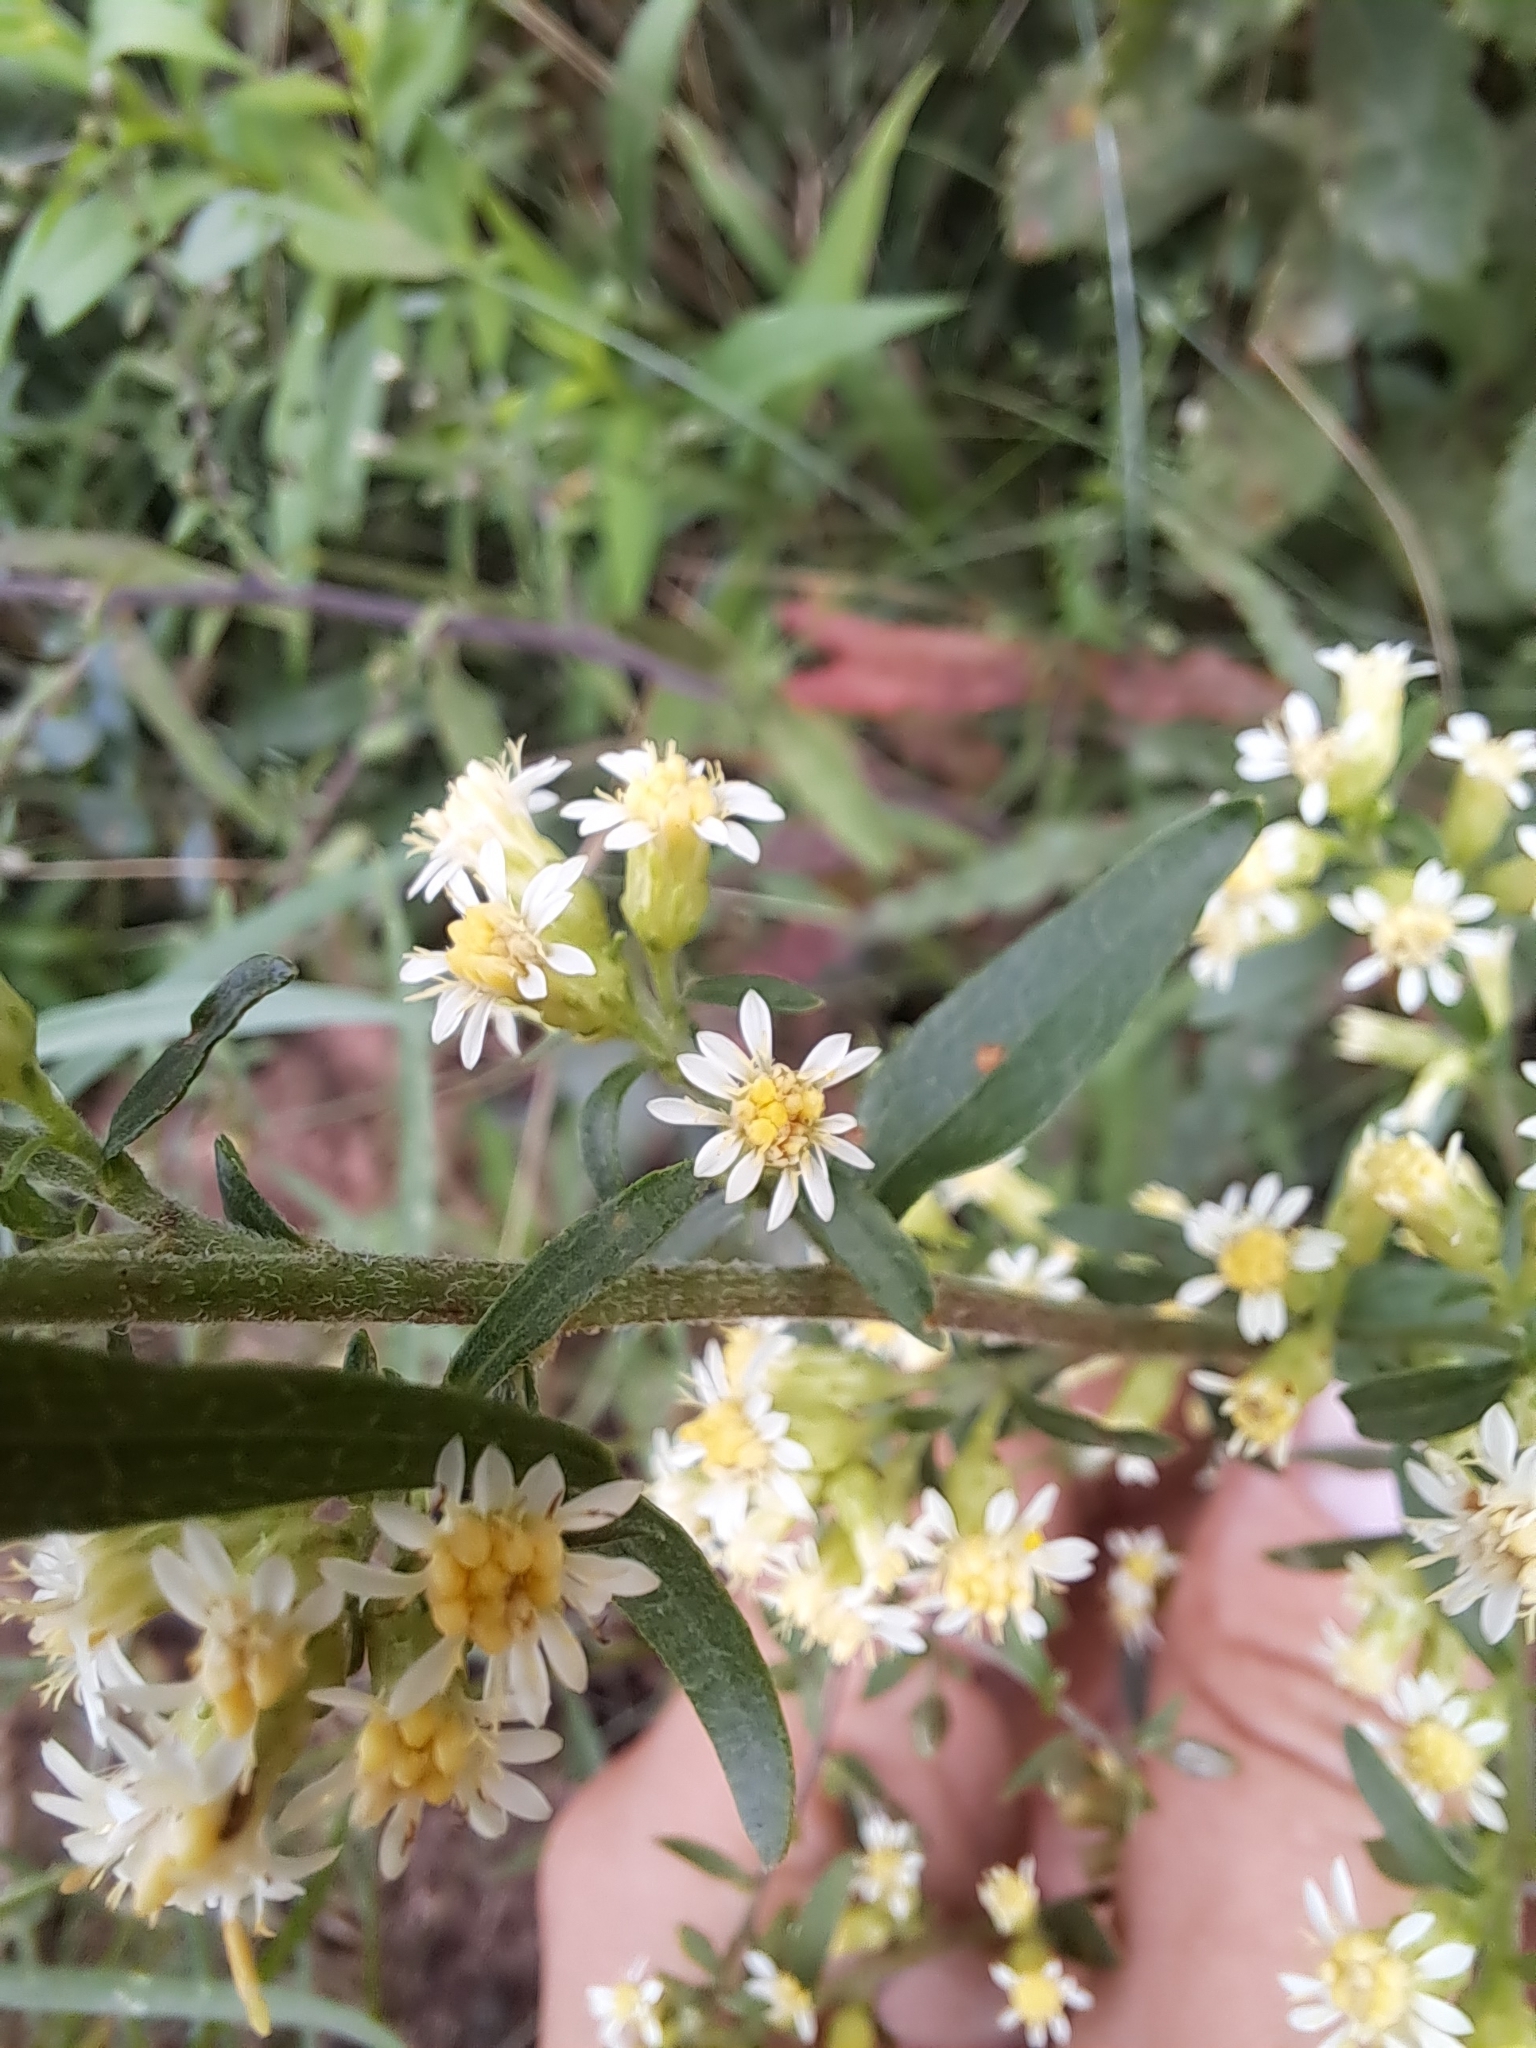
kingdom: Plantae
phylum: Tracheophyta
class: Magnoliopsida
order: Asterales
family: Asteraceae
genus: Solidago
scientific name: Solidago bicolor
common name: Silverrod
